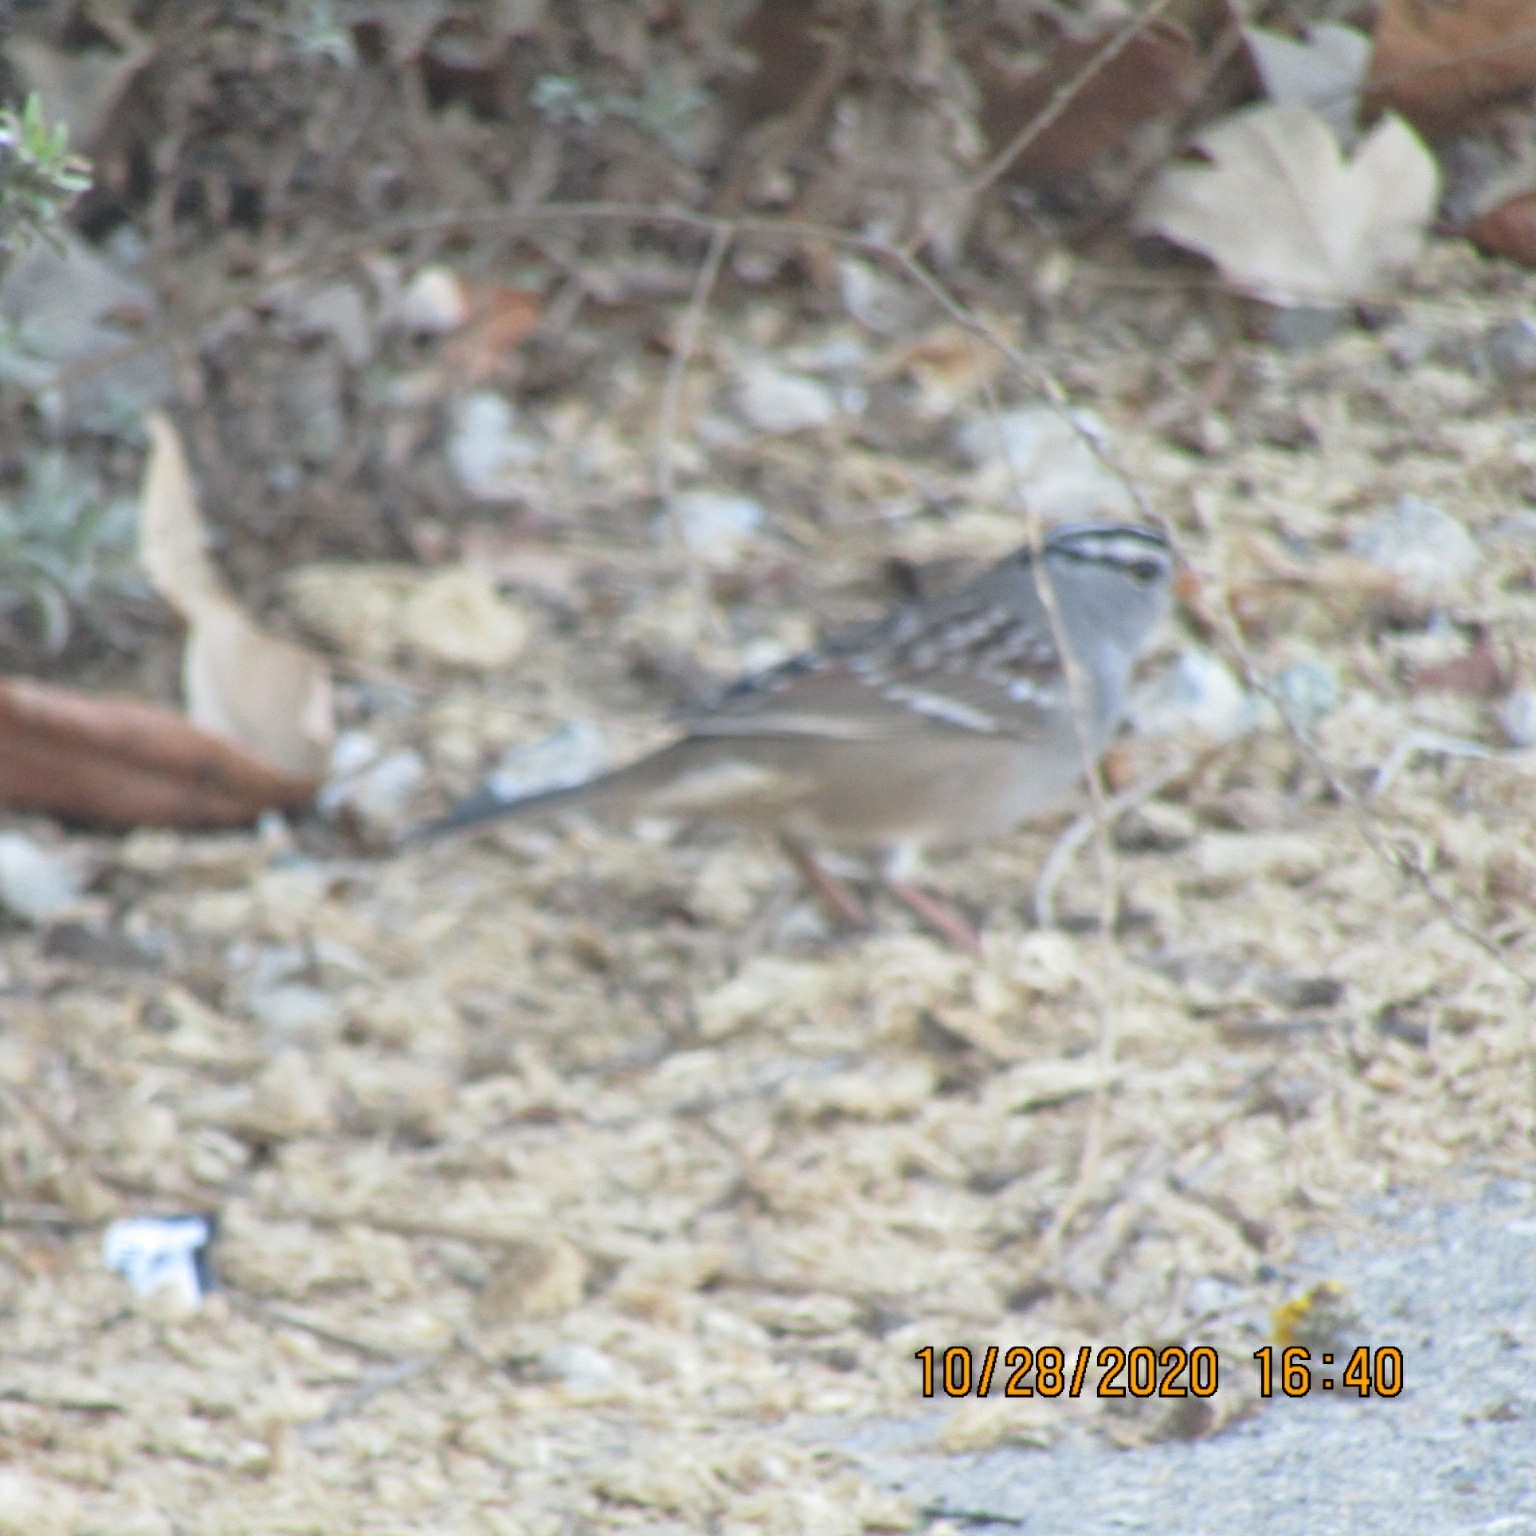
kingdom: Animalia
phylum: Chordata
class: Aves
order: Passeriformes
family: Passerellidae
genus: Zonotrichia
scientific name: Zonotrichia leucophrys
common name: White-crowned sparrow
